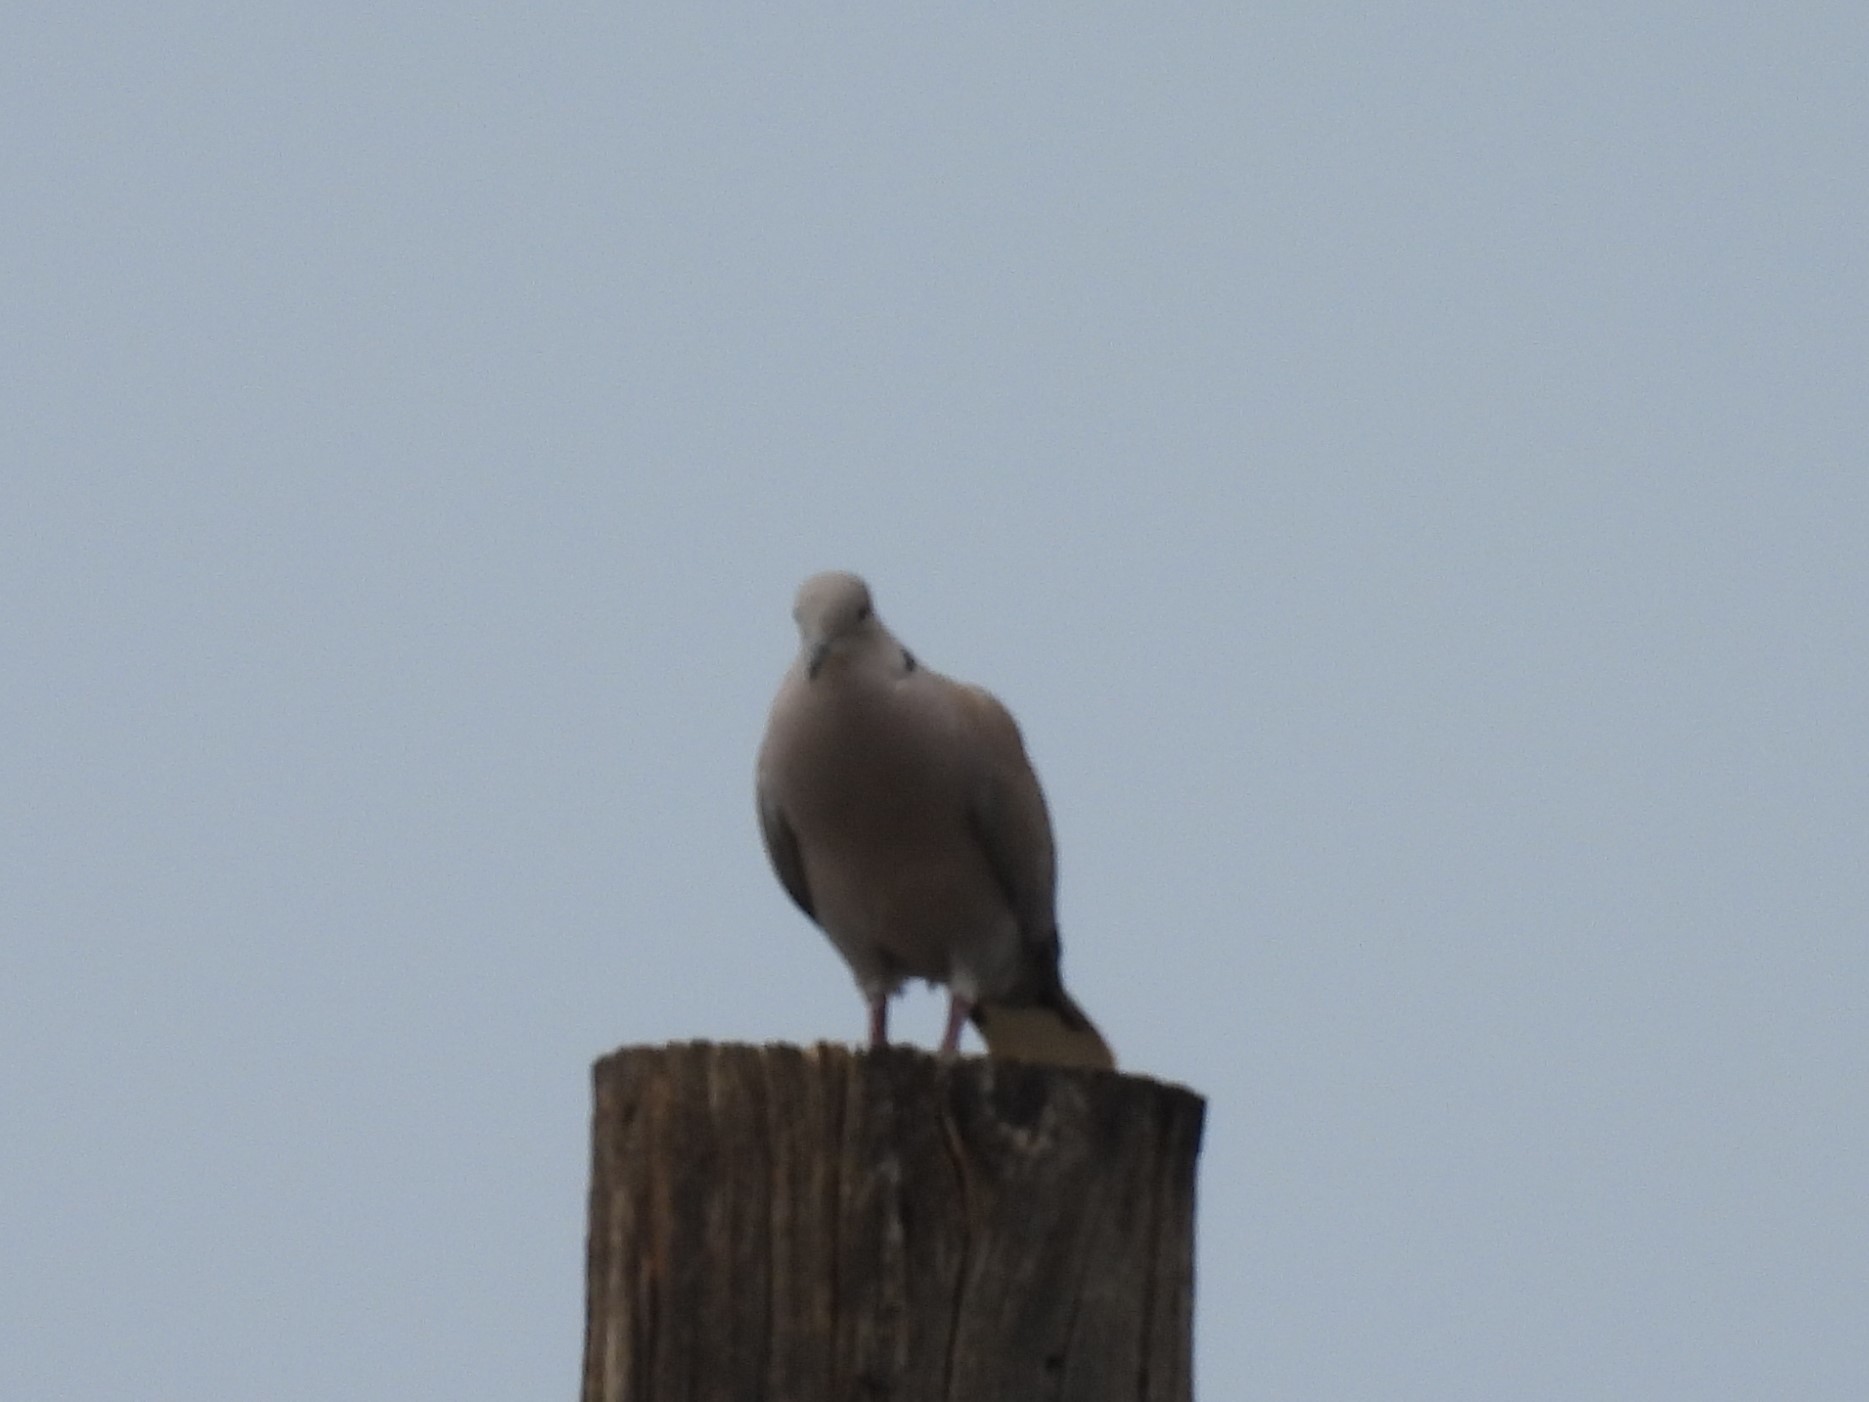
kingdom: Animalia
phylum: Chordata
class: Aves
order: Columbiformes
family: Columbidae
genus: Streptopelia
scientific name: Streptopelia decaocto
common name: Eurasian collared dove
